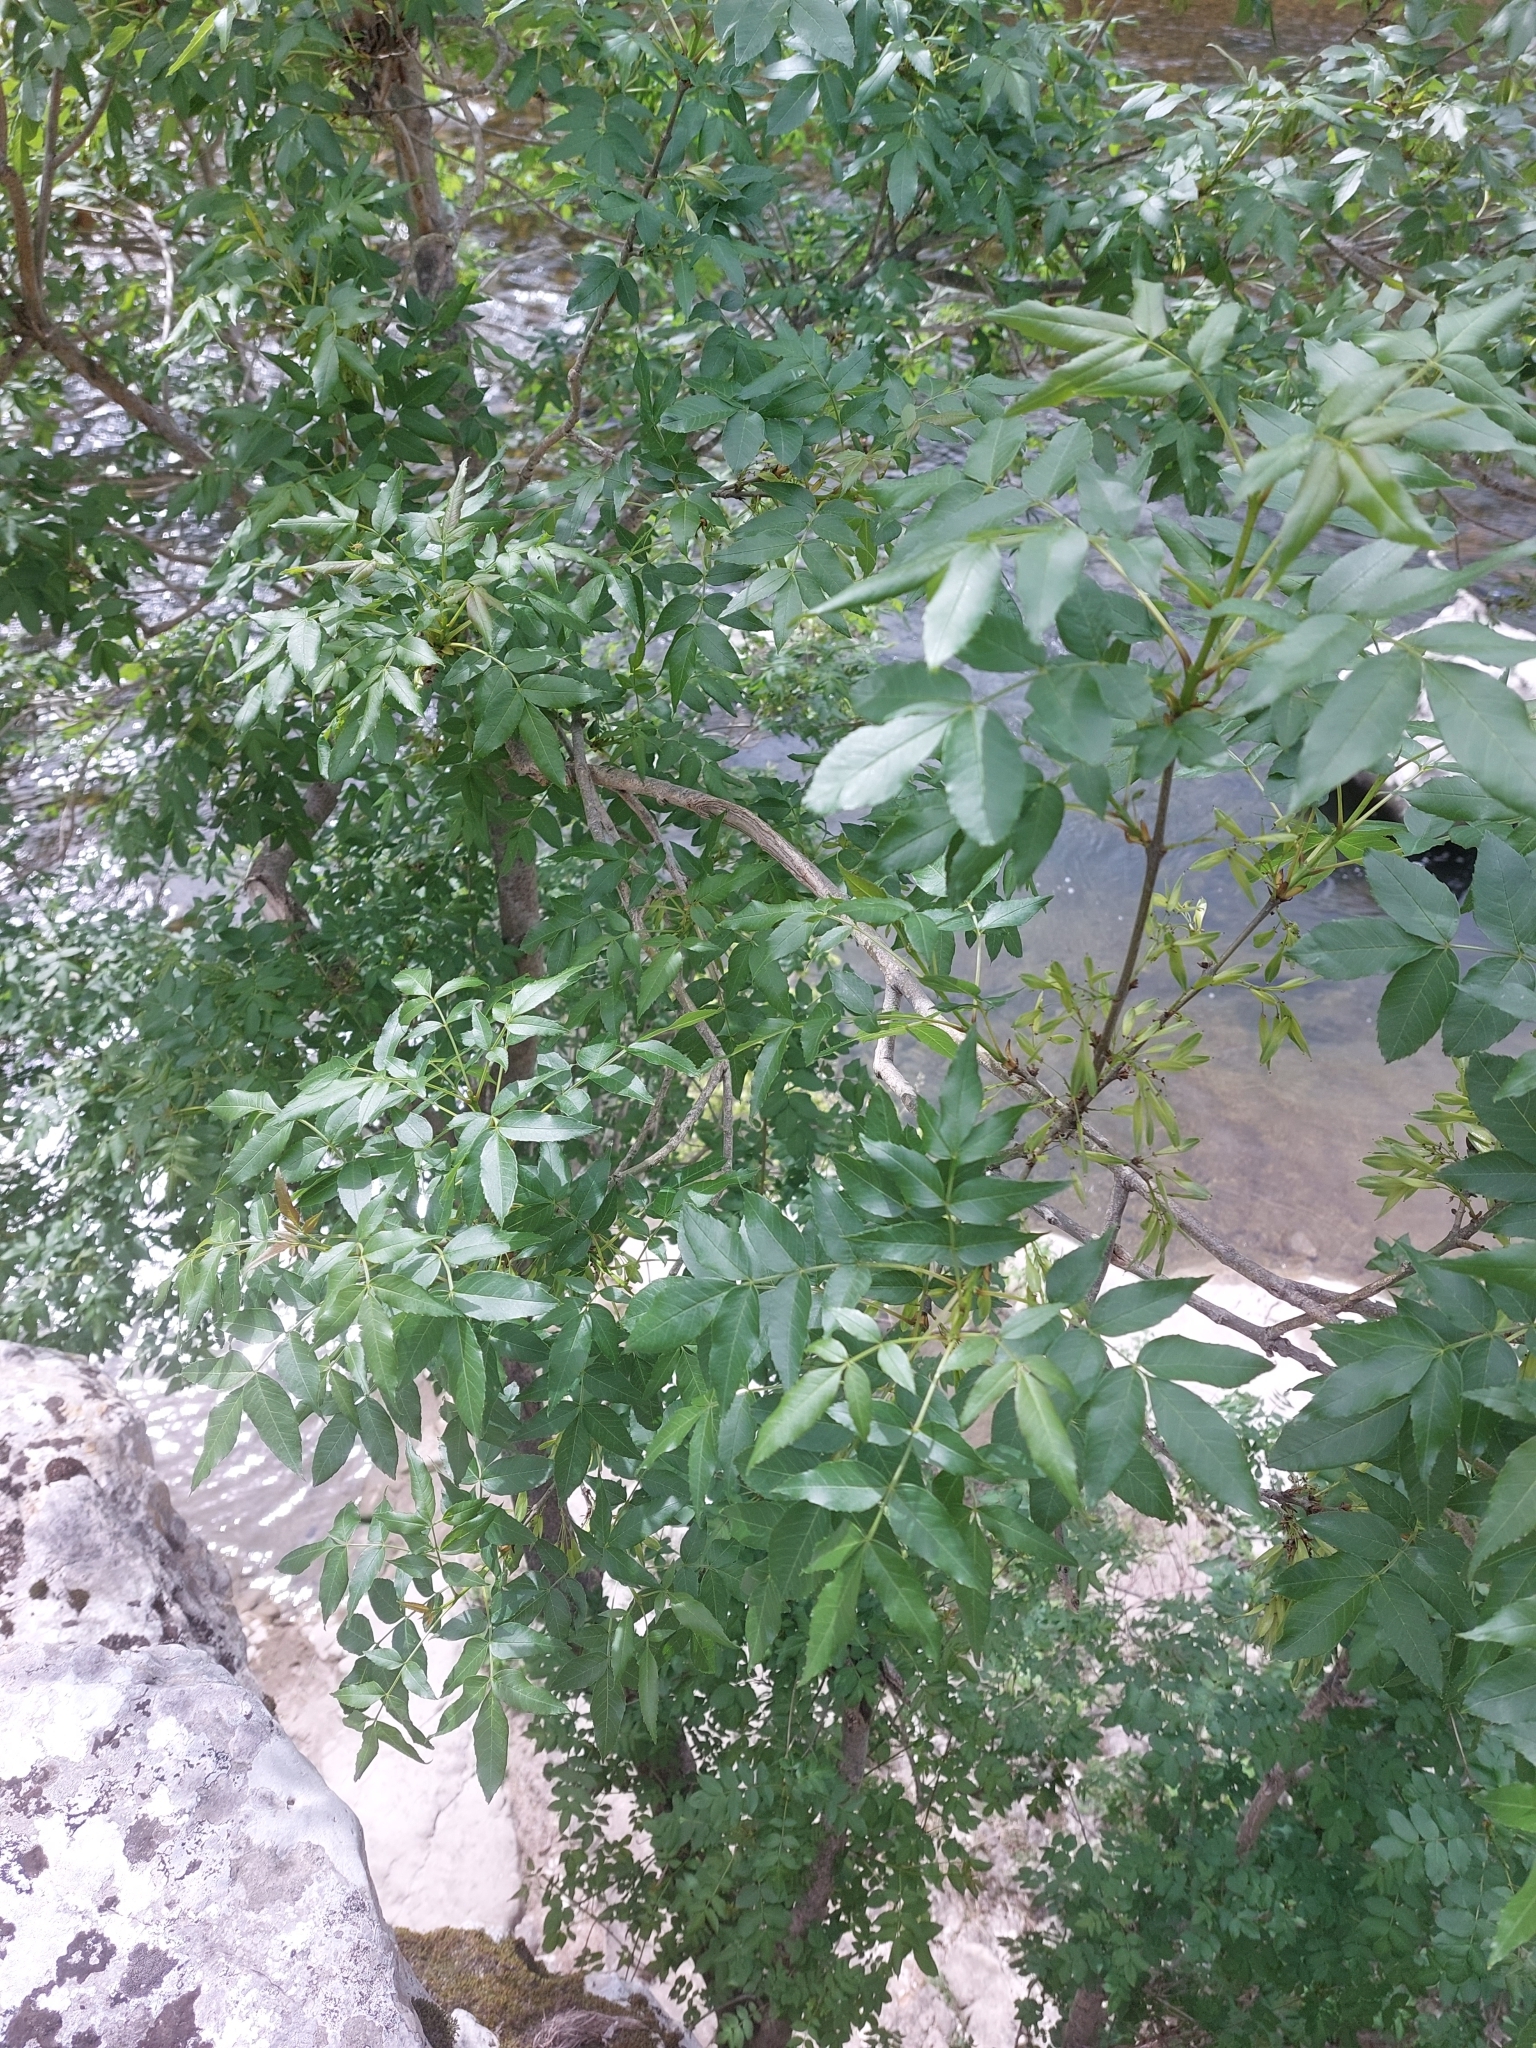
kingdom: Plantae
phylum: Tracheophyta
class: Magnoliopsida
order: Lamiales
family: Oleaceae
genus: Fraxinus
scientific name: Fraxinus excelsior
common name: European ash
